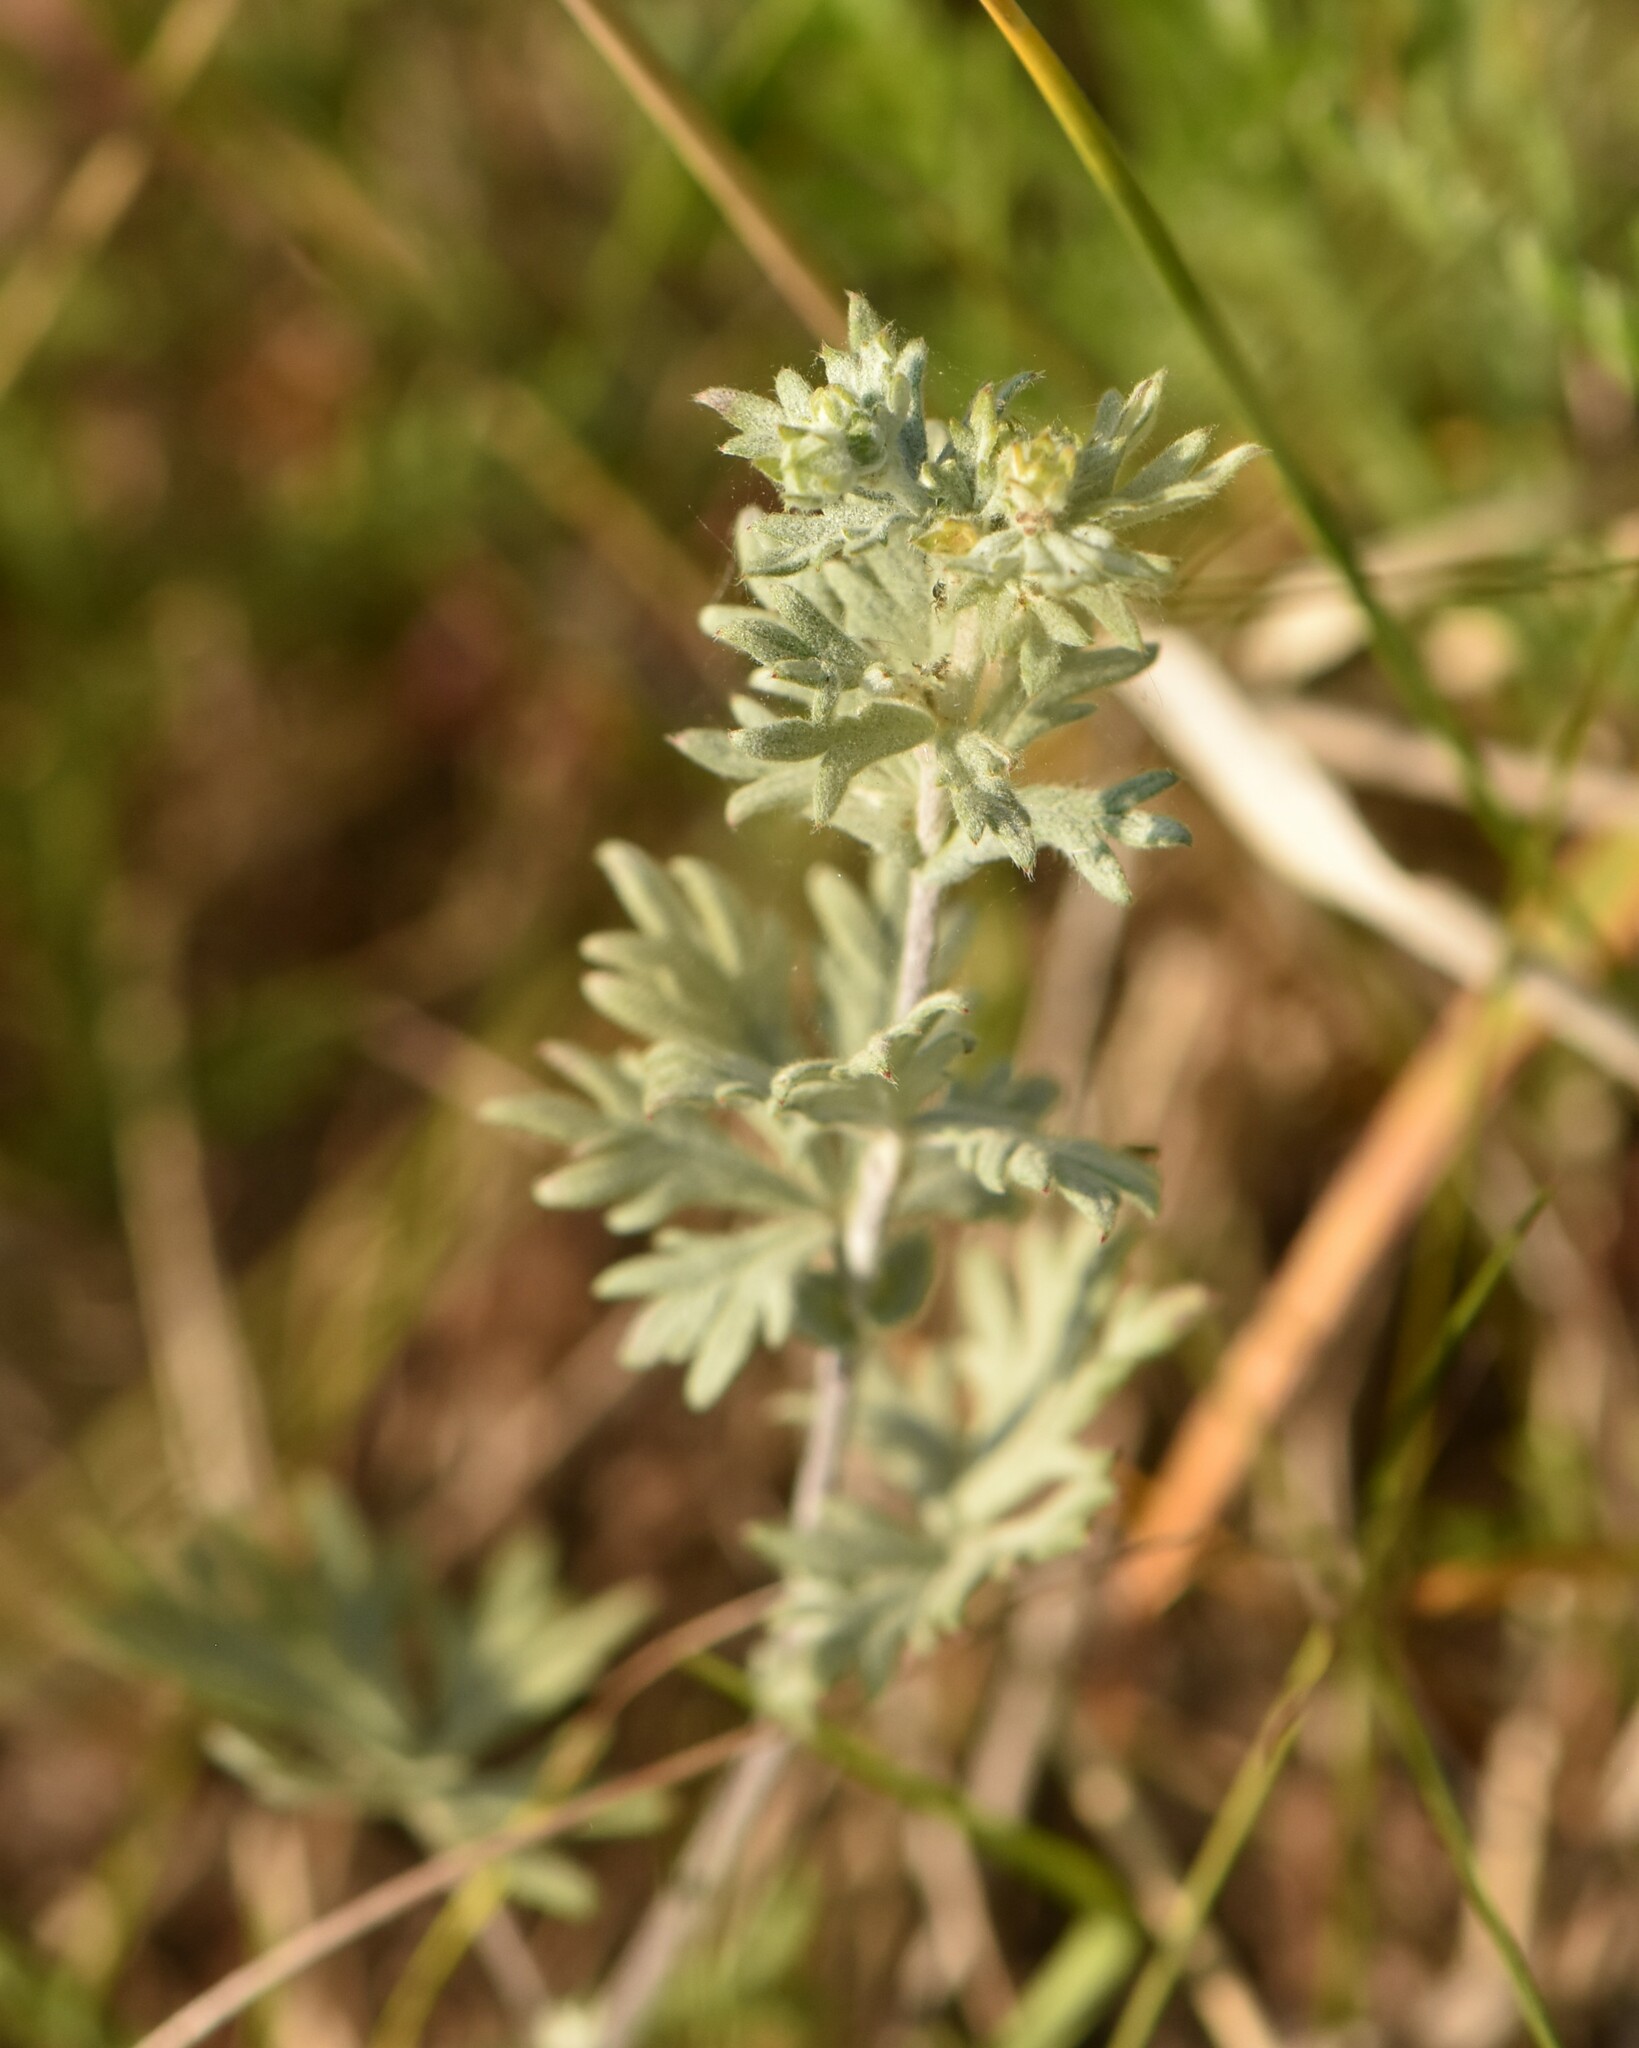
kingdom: Plantae
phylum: Tracheophyta
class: Magnoliopsida
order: Rosales
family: Rosaceae
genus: Potentilla
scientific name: Potentilla argentea
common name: Hoary cinquefoil
